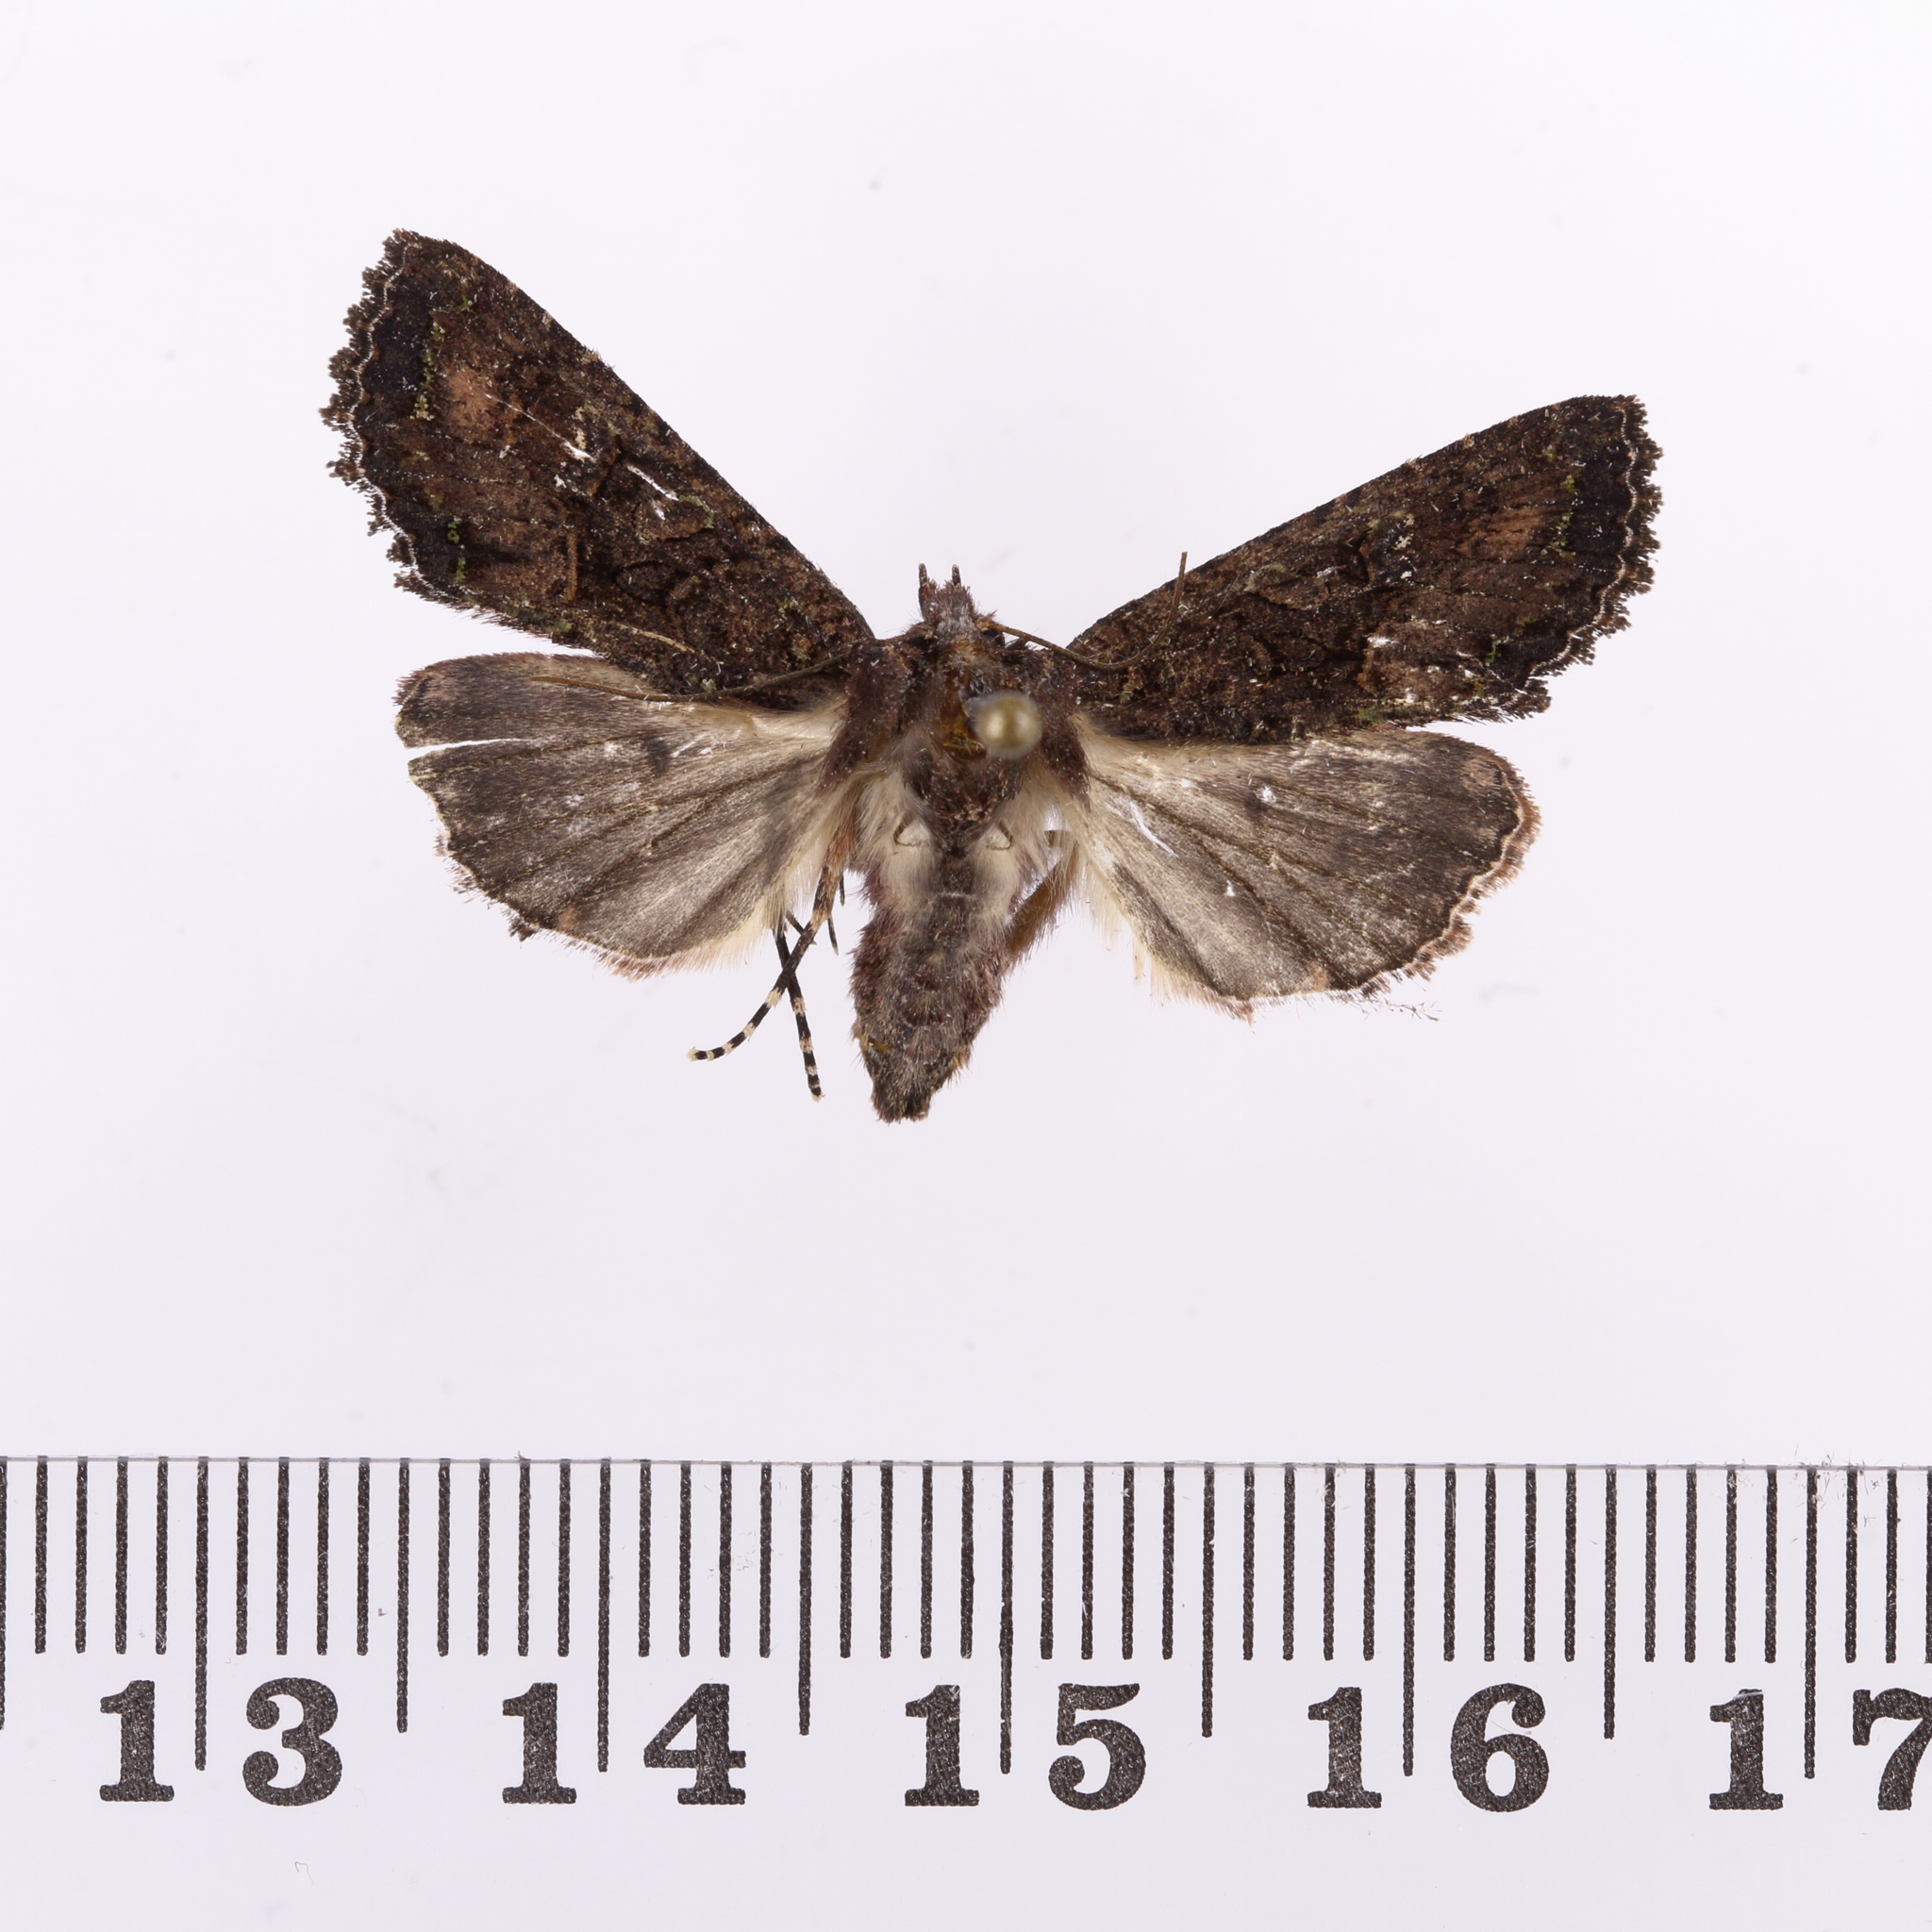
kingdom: Animalia
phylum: Arthropoda
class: Insecta
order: Lepidoptera
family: Noctuidae
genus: Meterana
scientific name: Meterana ochthistis
